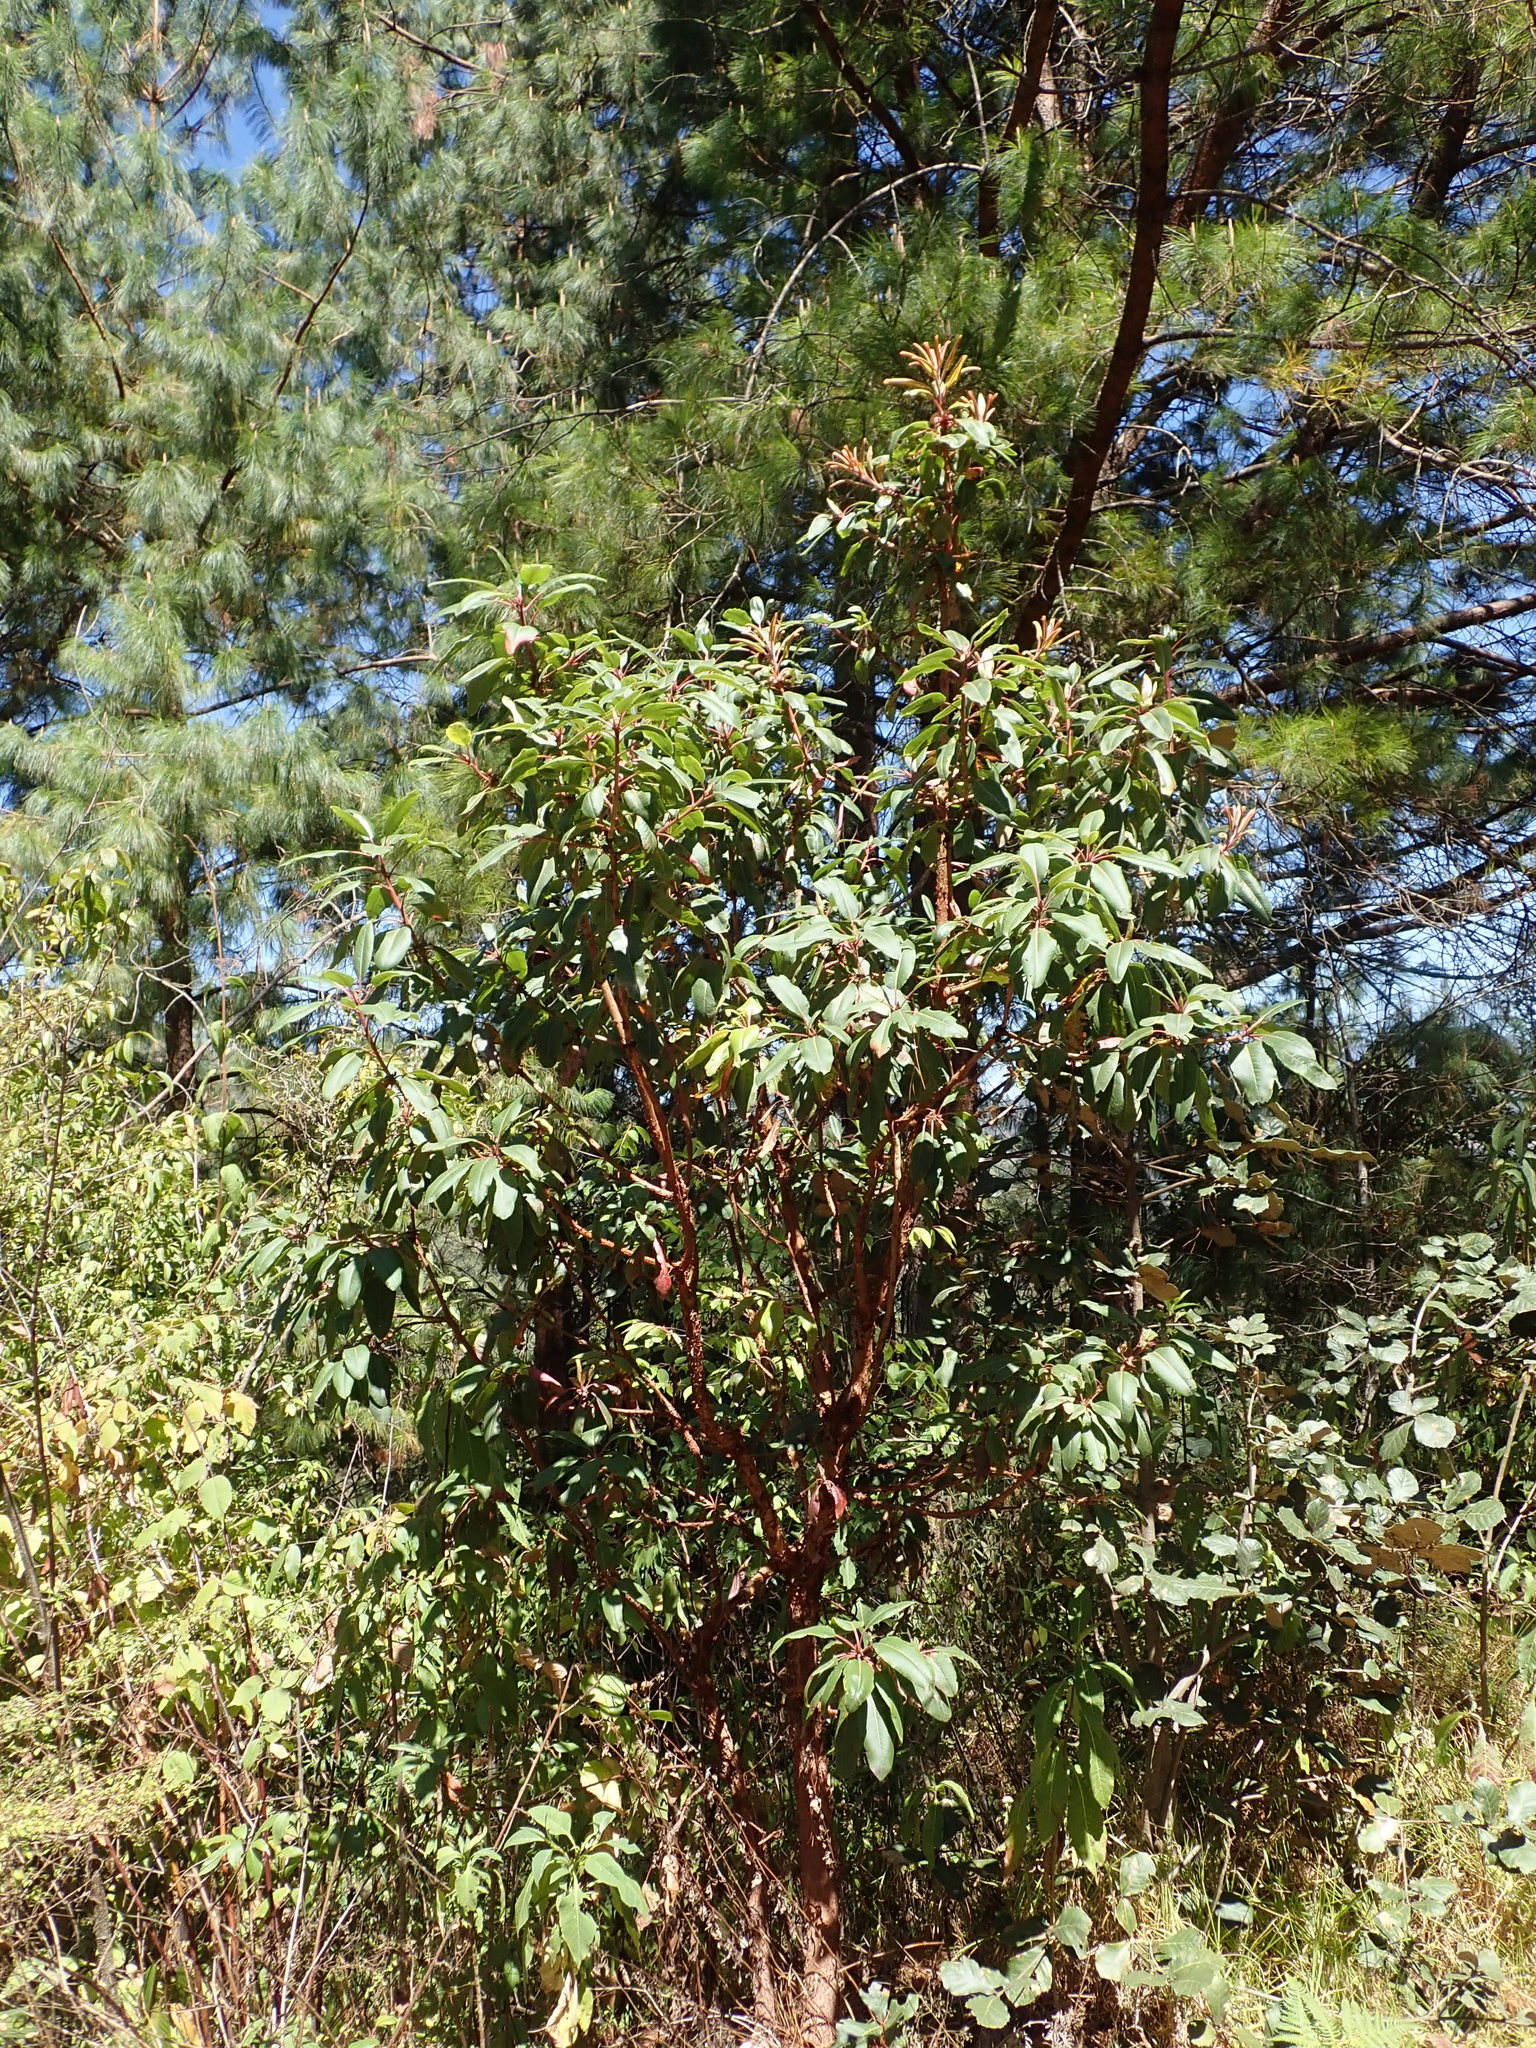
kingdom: Plantae
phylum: Tracheophyta
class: Magnoliopsida
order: Ericales
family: Ericaceae
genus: Arbutus
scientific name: Arbutus xalapensis
